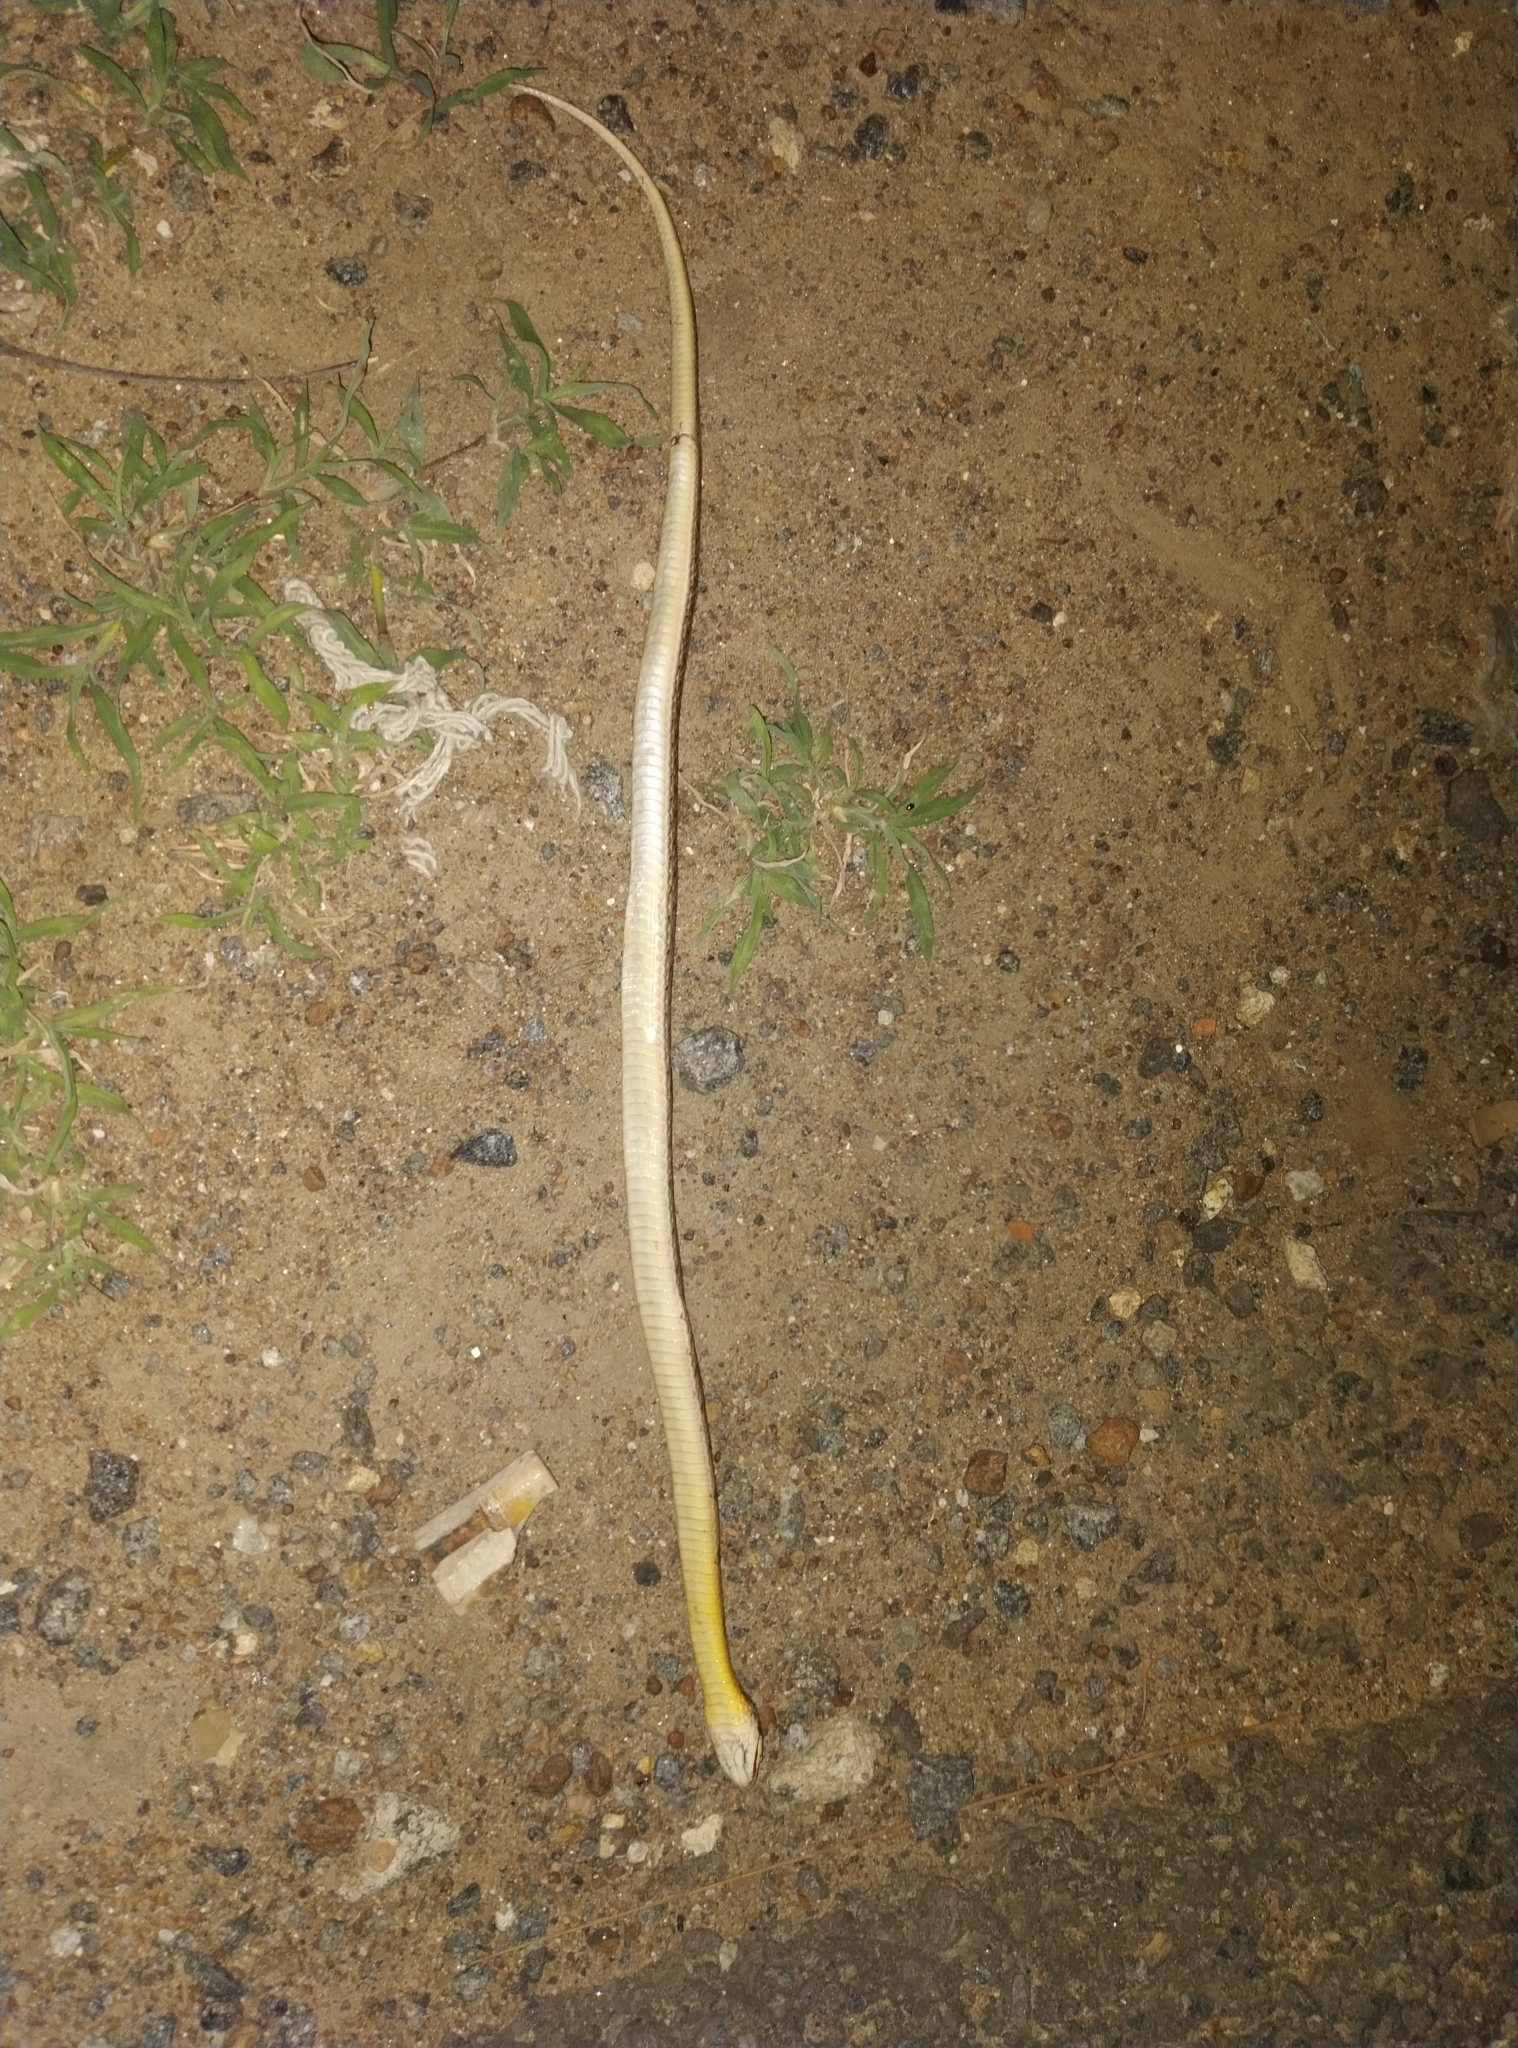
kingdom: Animalia
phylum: Chordata
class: Squamata
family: Colubridae
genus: Amphiesma
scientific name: Amphiesma stolatum
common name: Buff striped keelback
